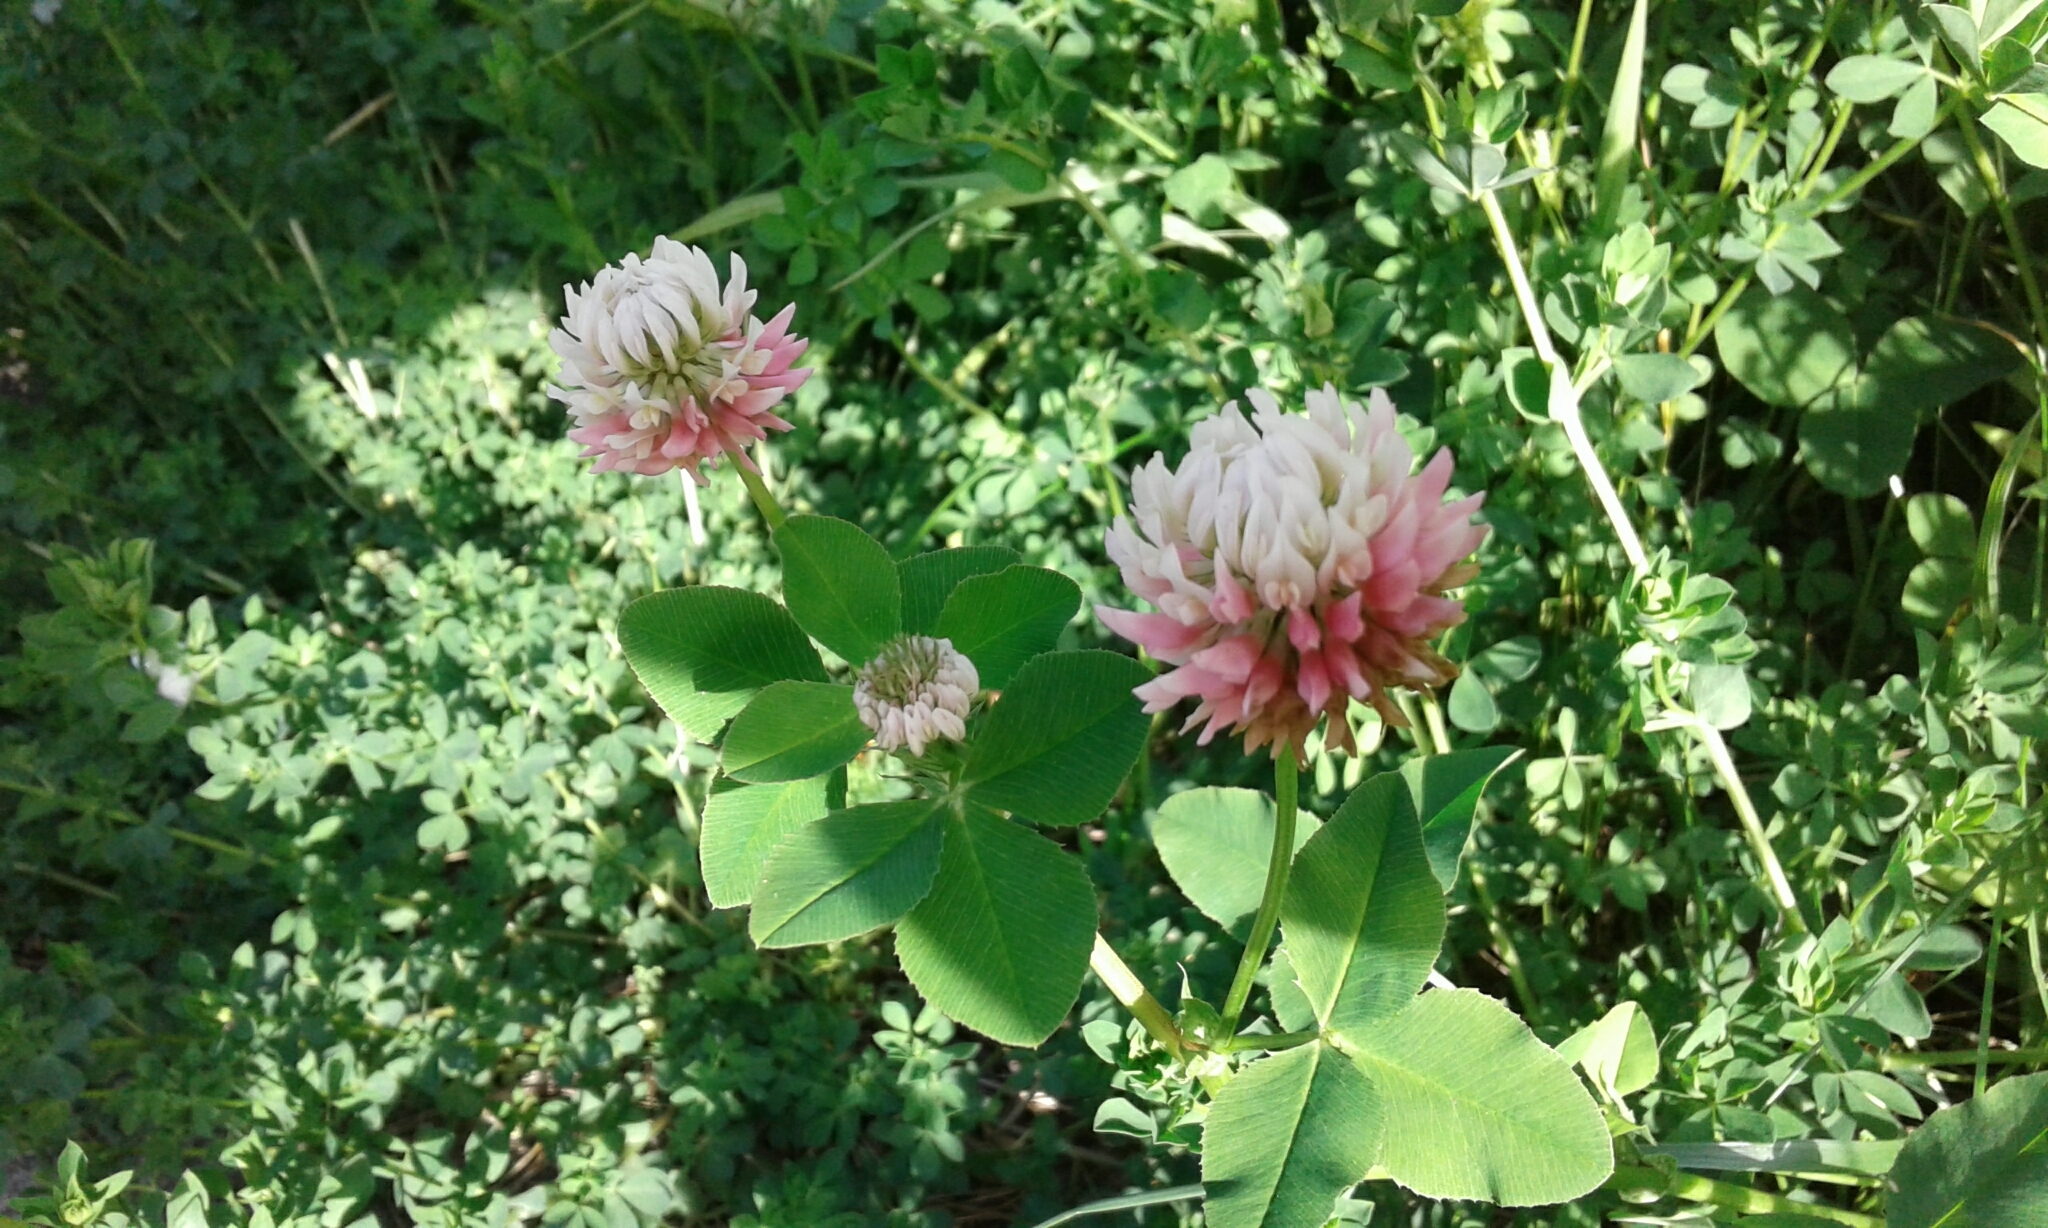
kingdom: Plantae
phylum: Tracheophyta
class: Magnoliopsida
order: Fabales
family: Fabaceae
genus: Trifolium
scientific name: Trifolium hybridum
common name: Alsike clover
